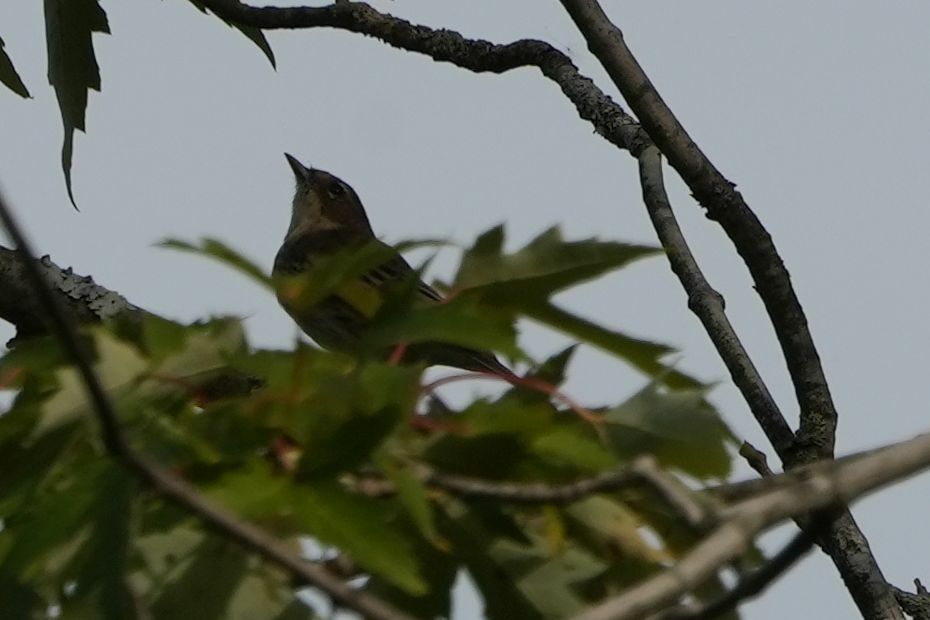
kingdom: Animalia
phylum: Chordata
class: Aves
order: Passeriformes
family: Parulidae
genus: Setophaga
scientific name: Setophaga coronata
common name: Myrtle warbler
